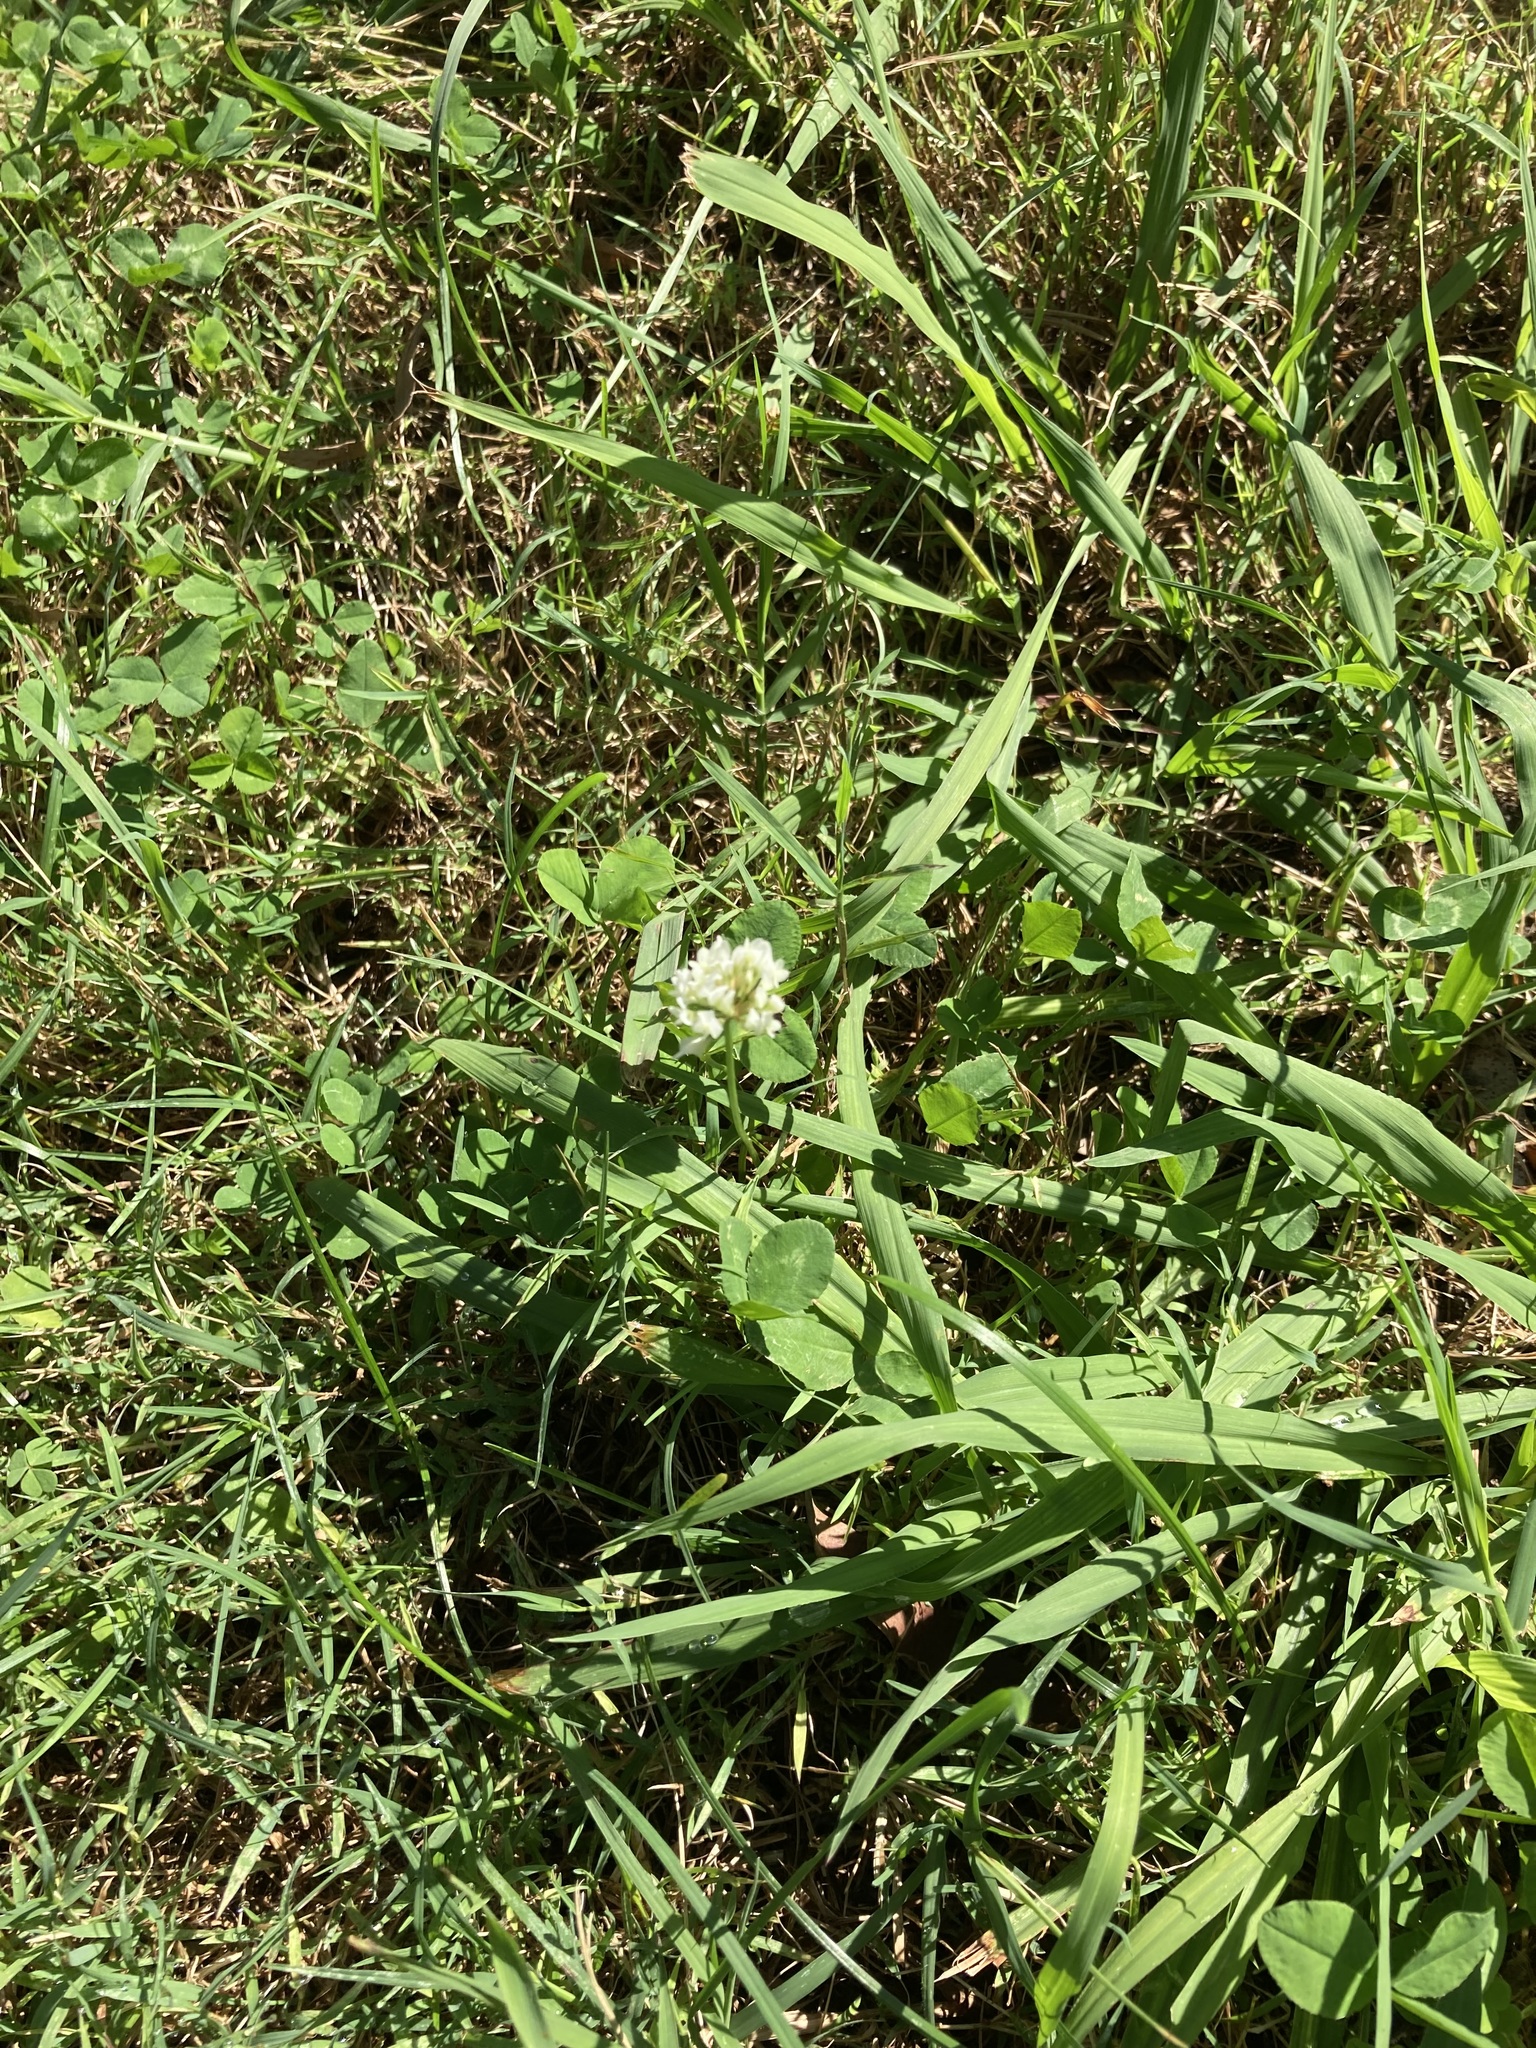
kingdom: Plantae
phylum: Tracheophyta
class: Magnoliopsida
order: Fabales
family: Fabaceae
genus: Trifolium
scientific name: Trifolium repens
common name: White clover
